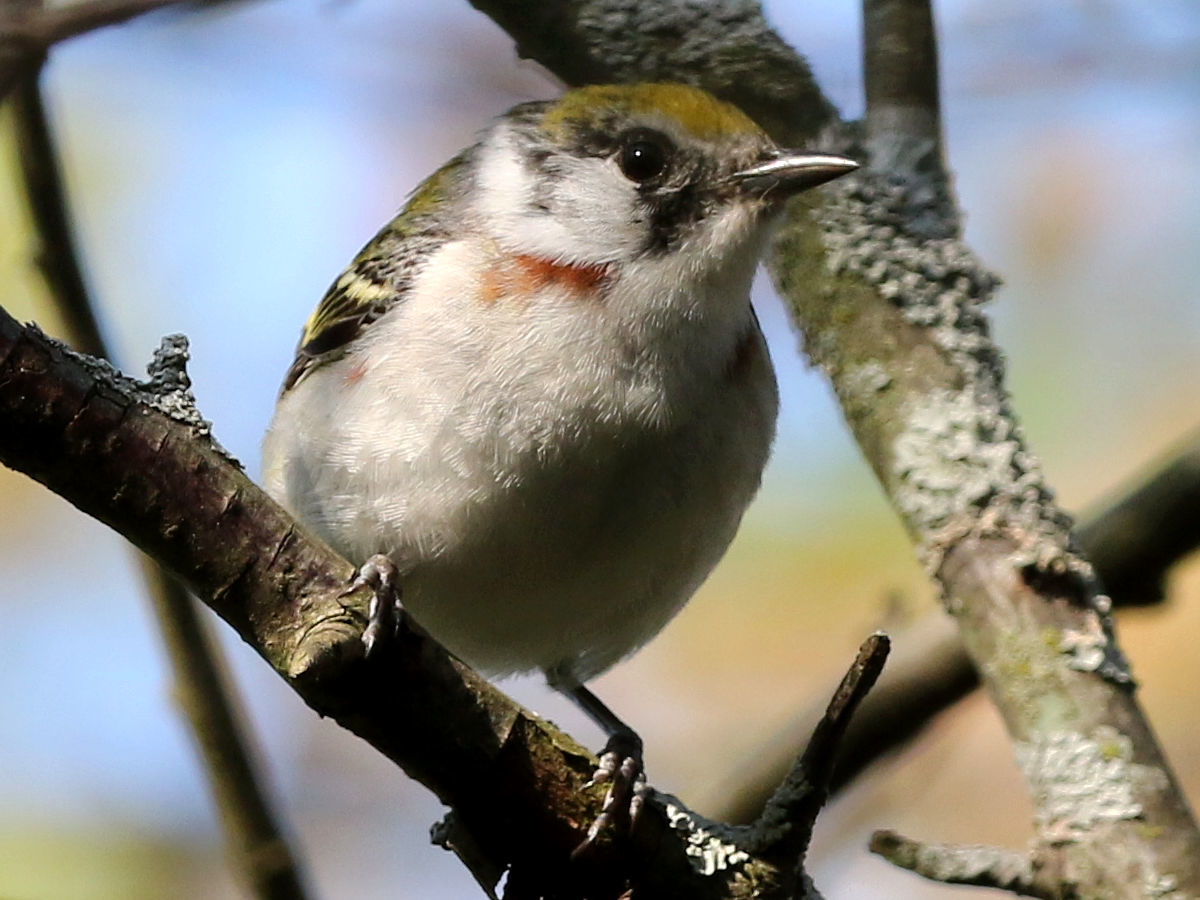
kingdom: Animalia
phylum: Chordata
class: Aves
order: Passeriformes
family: Parulidae
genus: Setophaga
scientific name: Setophaga pensylvanica
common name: Chestnut-sided warbler
